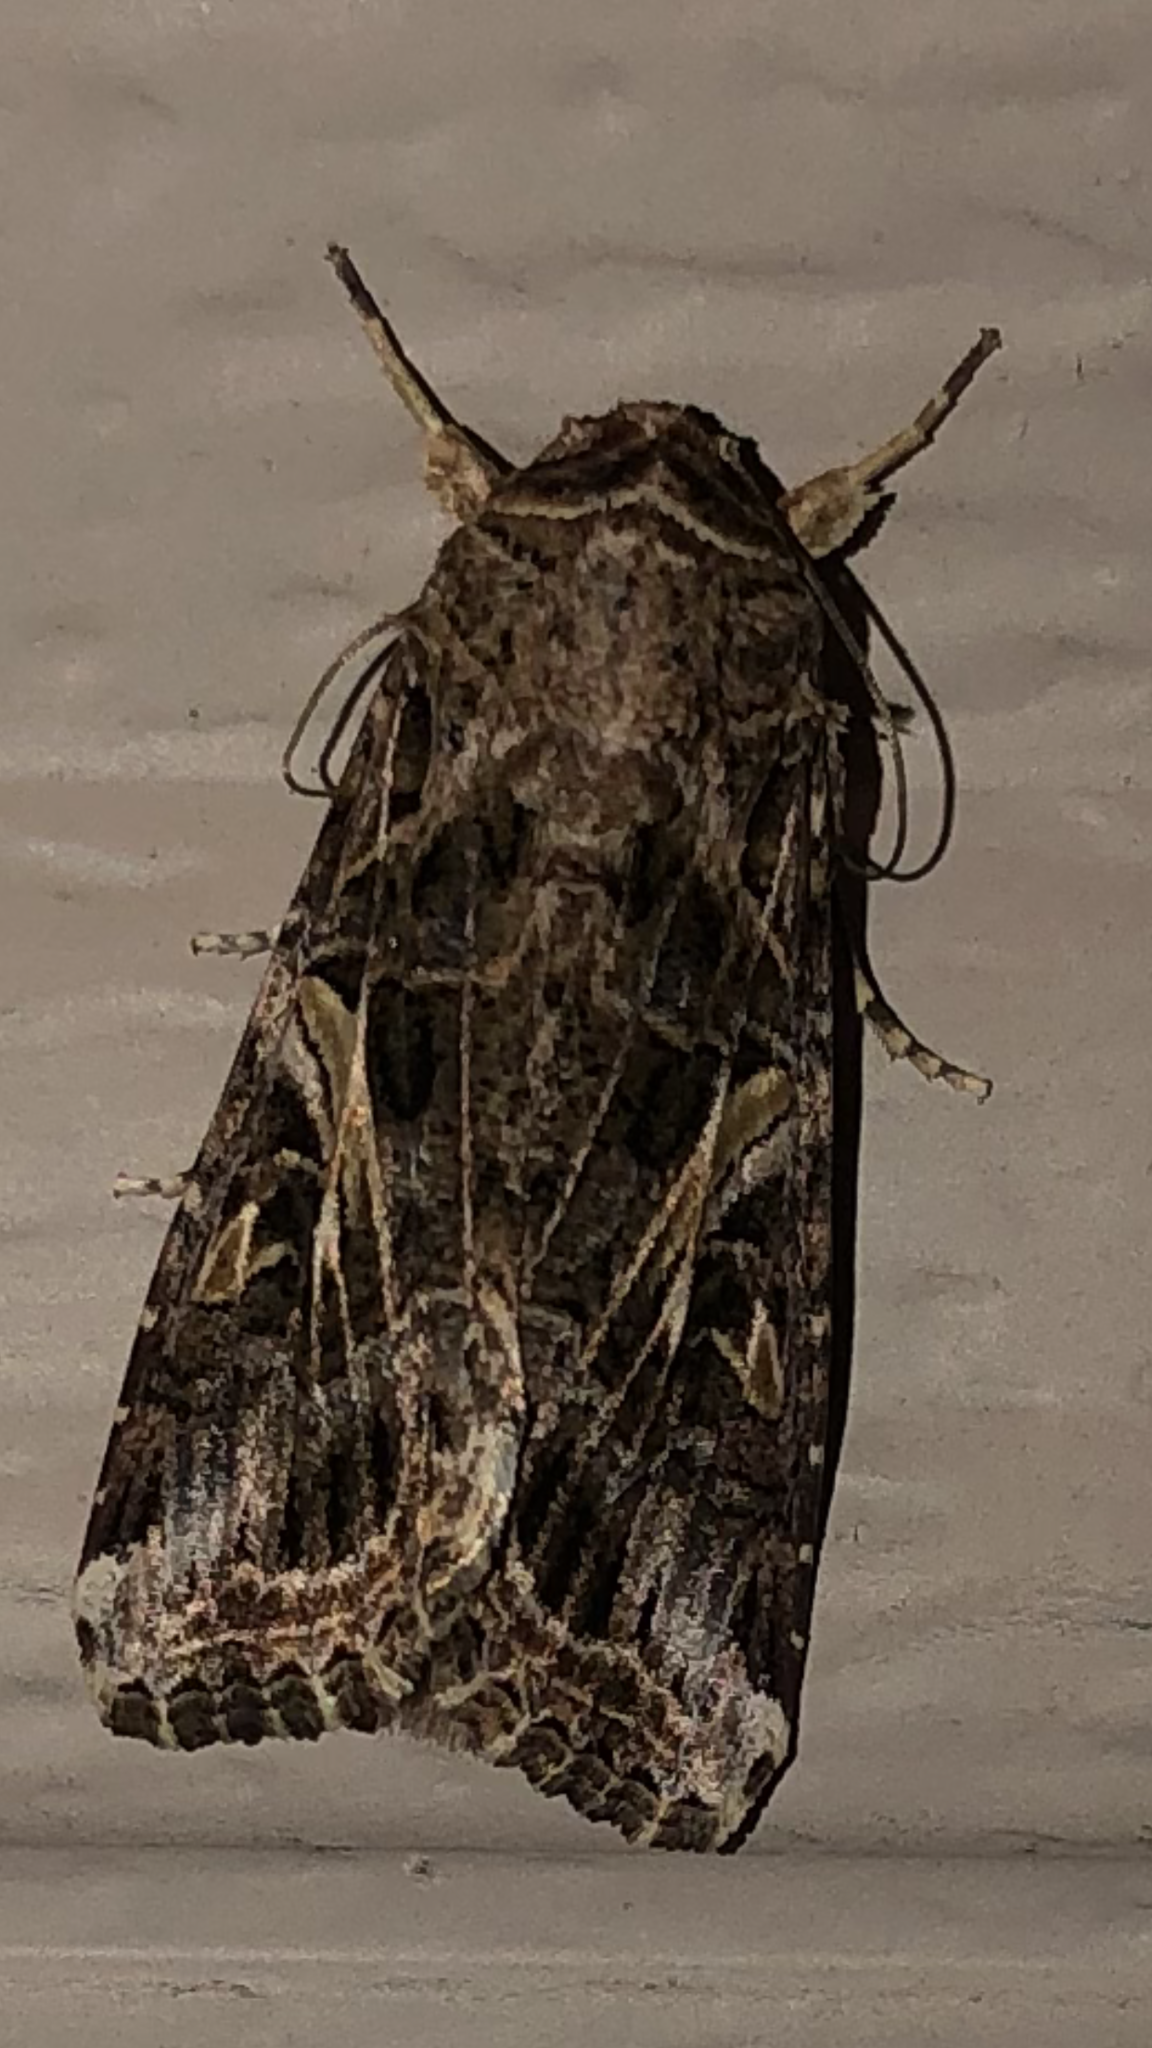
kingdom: Animalia
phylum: Arthropoda
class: Insecta
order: Lepidoptera
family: Noctuidae
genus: Spodoptera
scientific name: Spodoptera ornithogalli
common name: Yellow-striped armyworm
